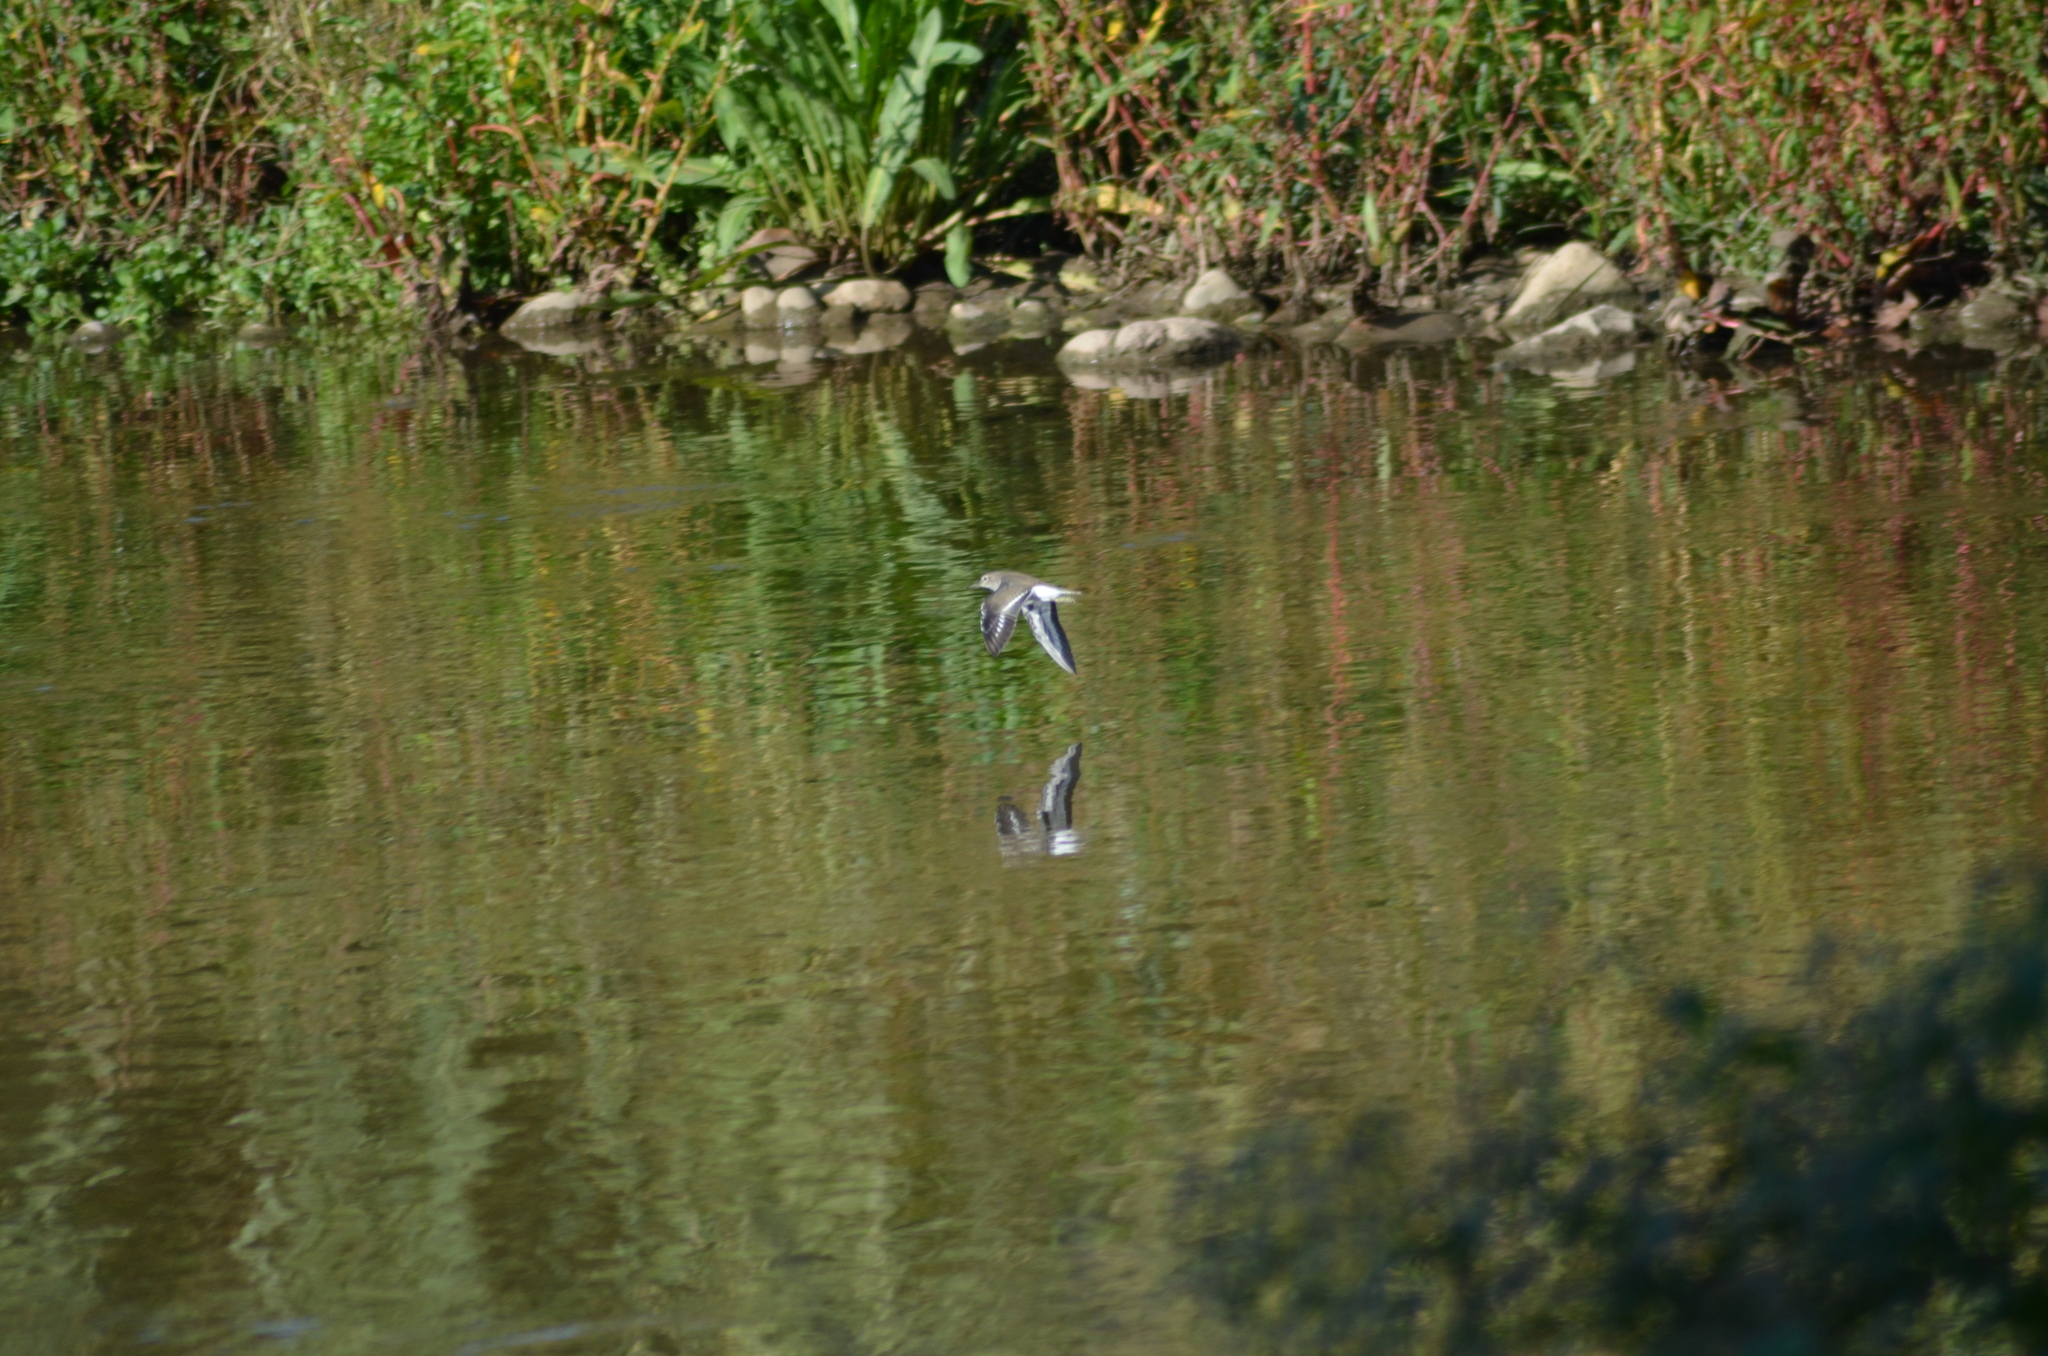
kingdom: Animalia
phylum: Chordata
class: Aves
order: Charadriiformes
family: Scolopacidae
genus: Actitis
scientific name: Actitis hypoleucos
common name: Common sandpiper
